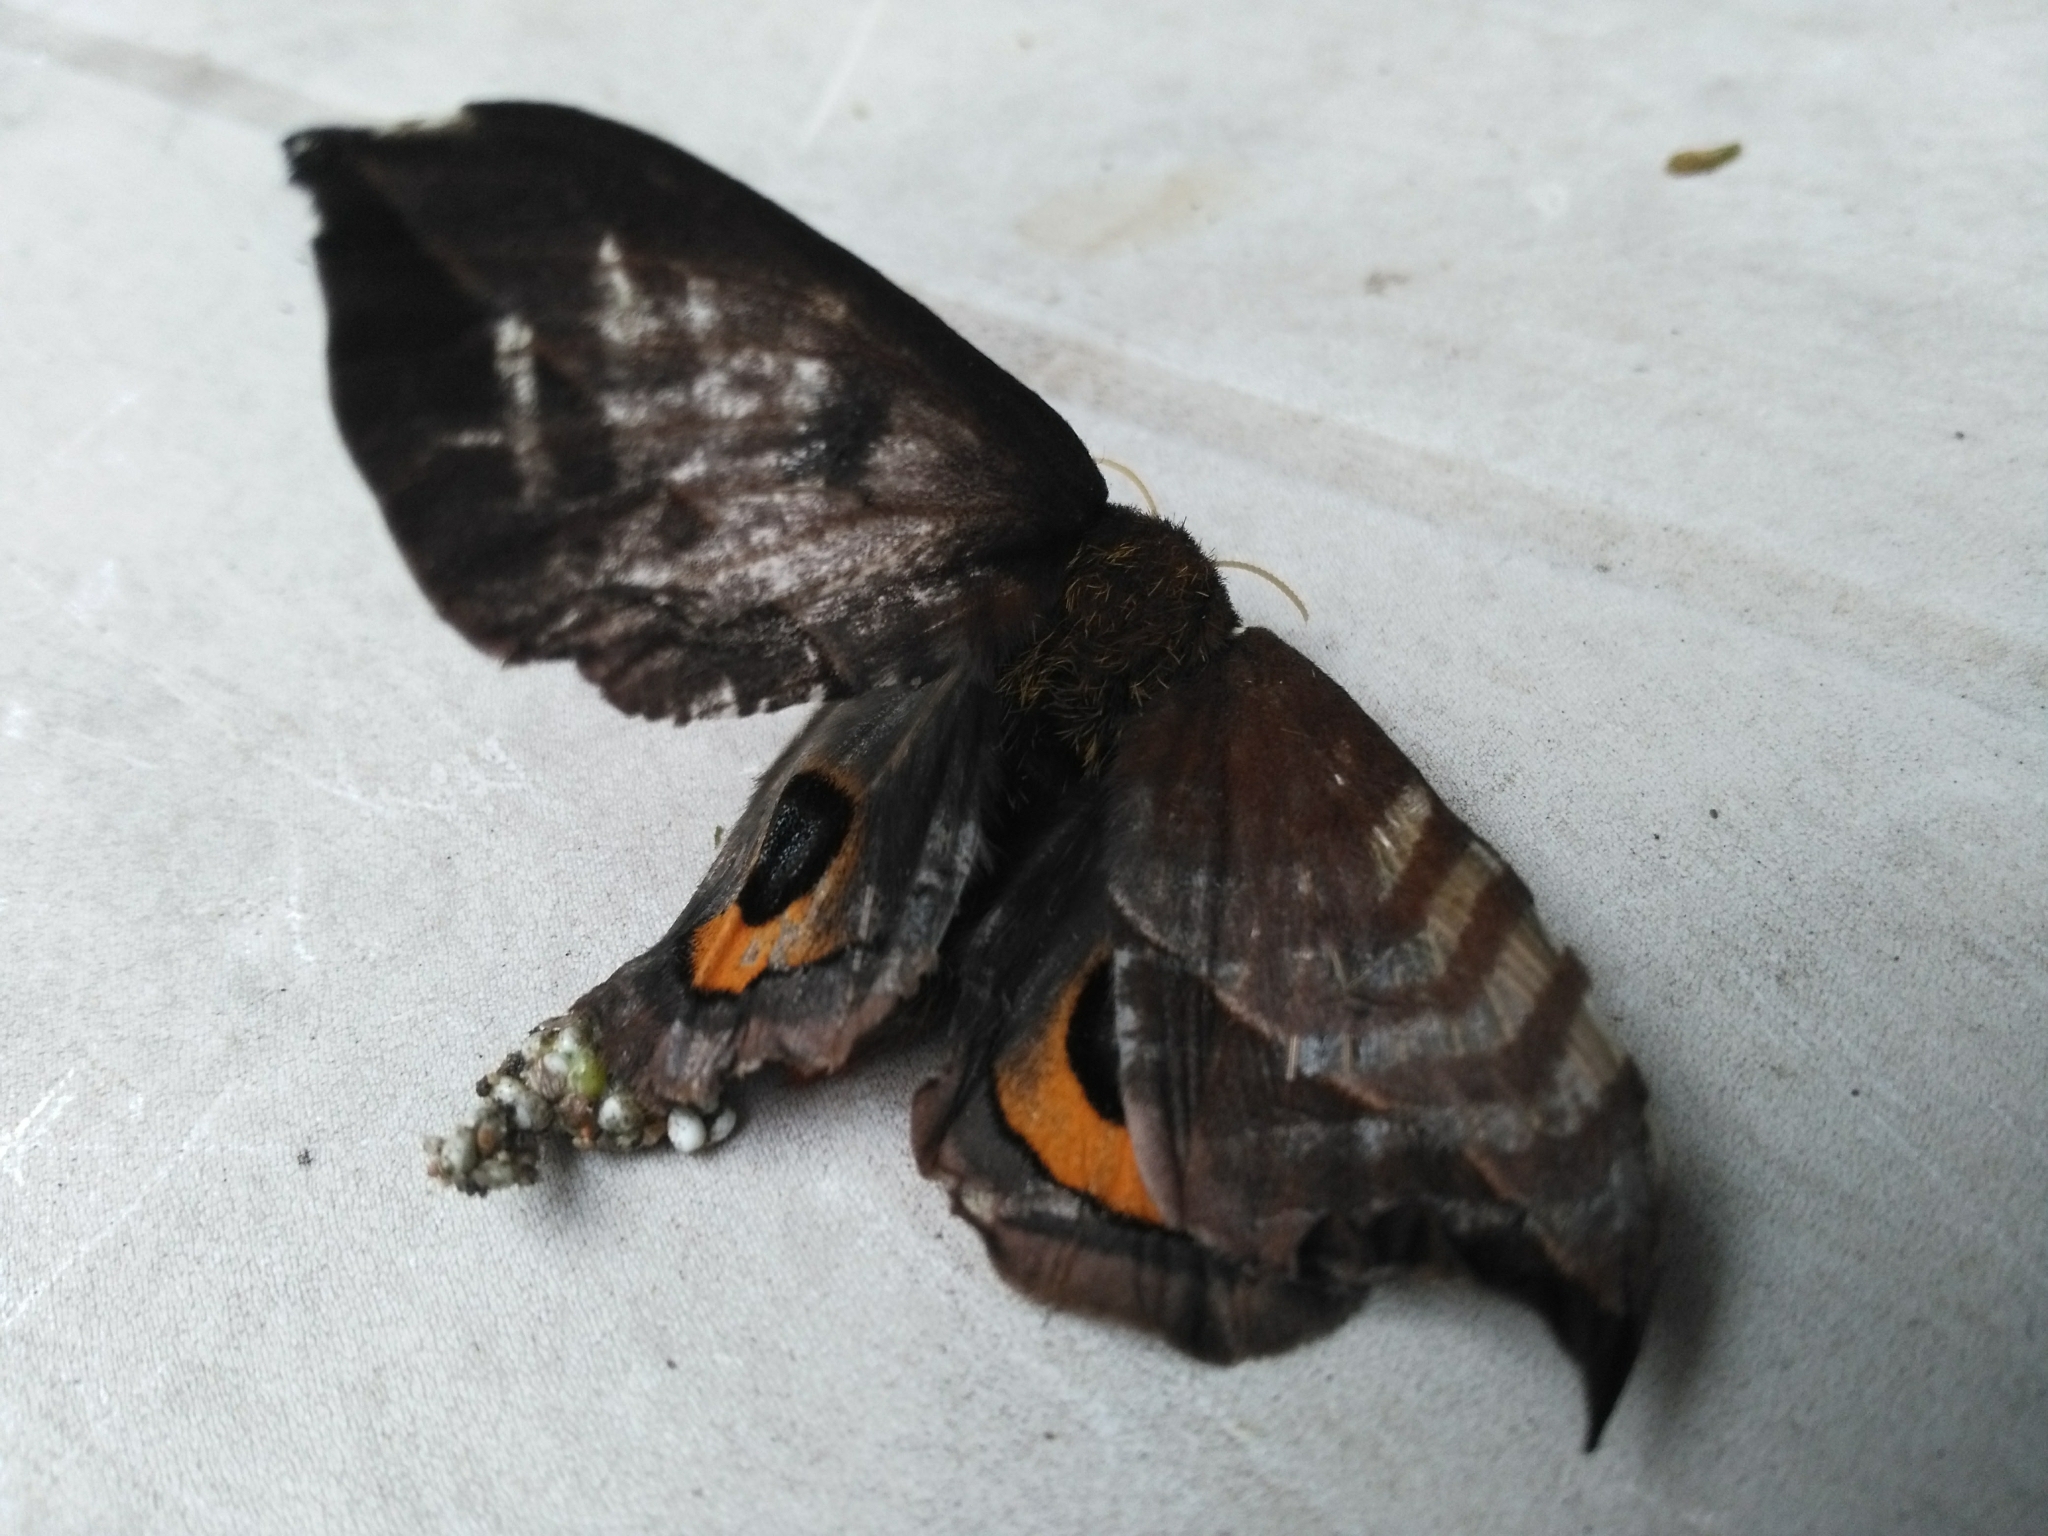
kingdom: Animalia
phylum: Arthropoda
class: Insecta
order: Lepidoptera
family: Saturniidae
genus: Automeris
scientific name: Automeris naranja
